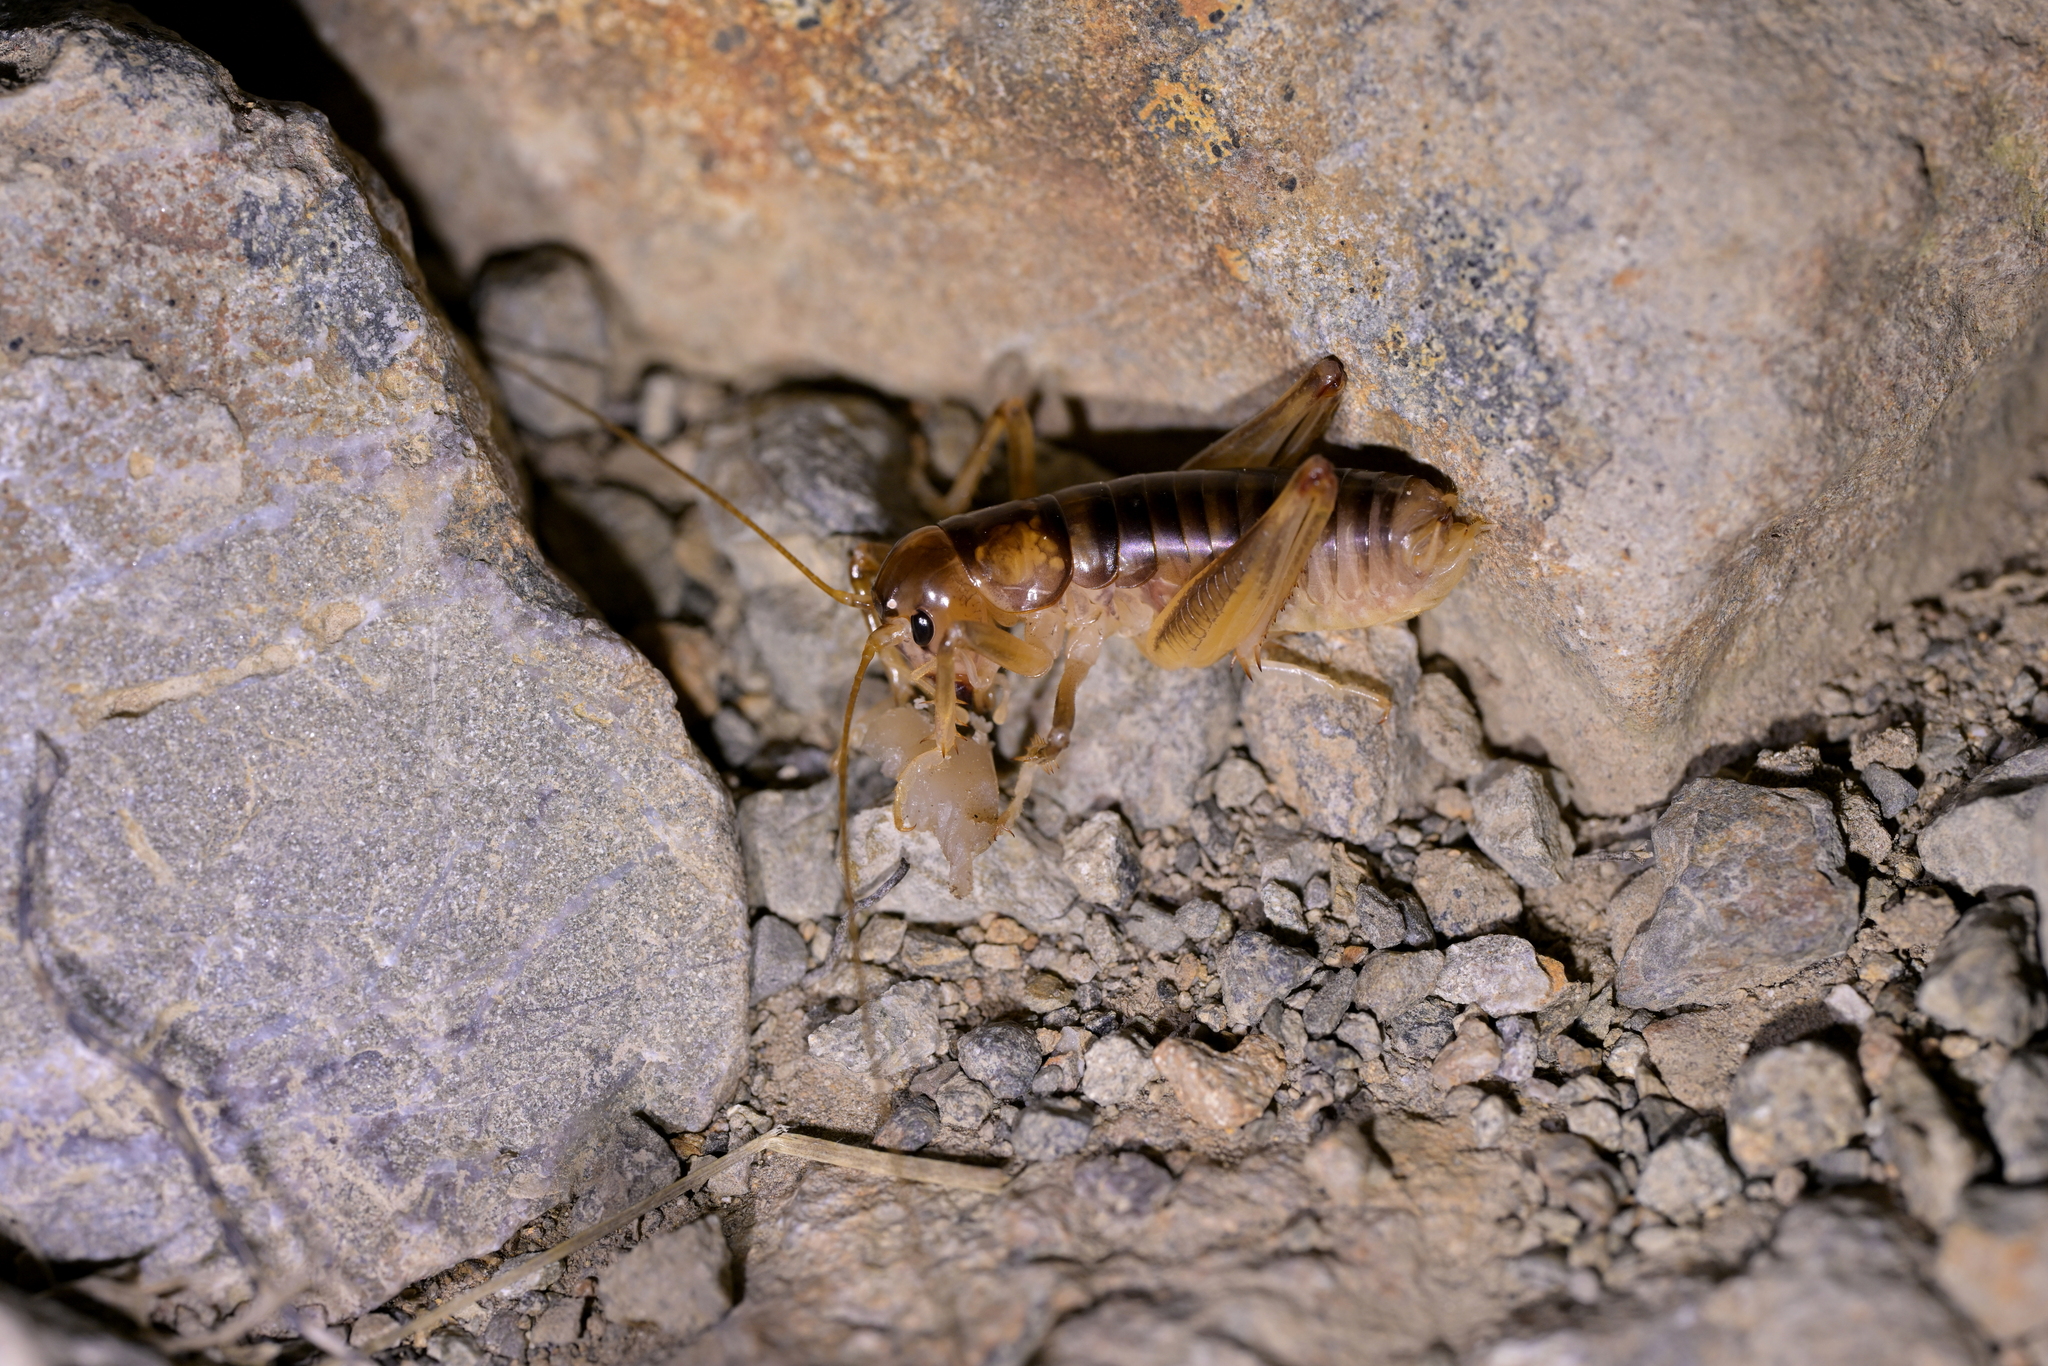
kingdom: Animalia
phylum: Arthropoda
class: Insecta
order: Orthoptera
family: Anostostomatidae
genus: Hemiandrus
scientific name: Hemiandrus pallitarsis
